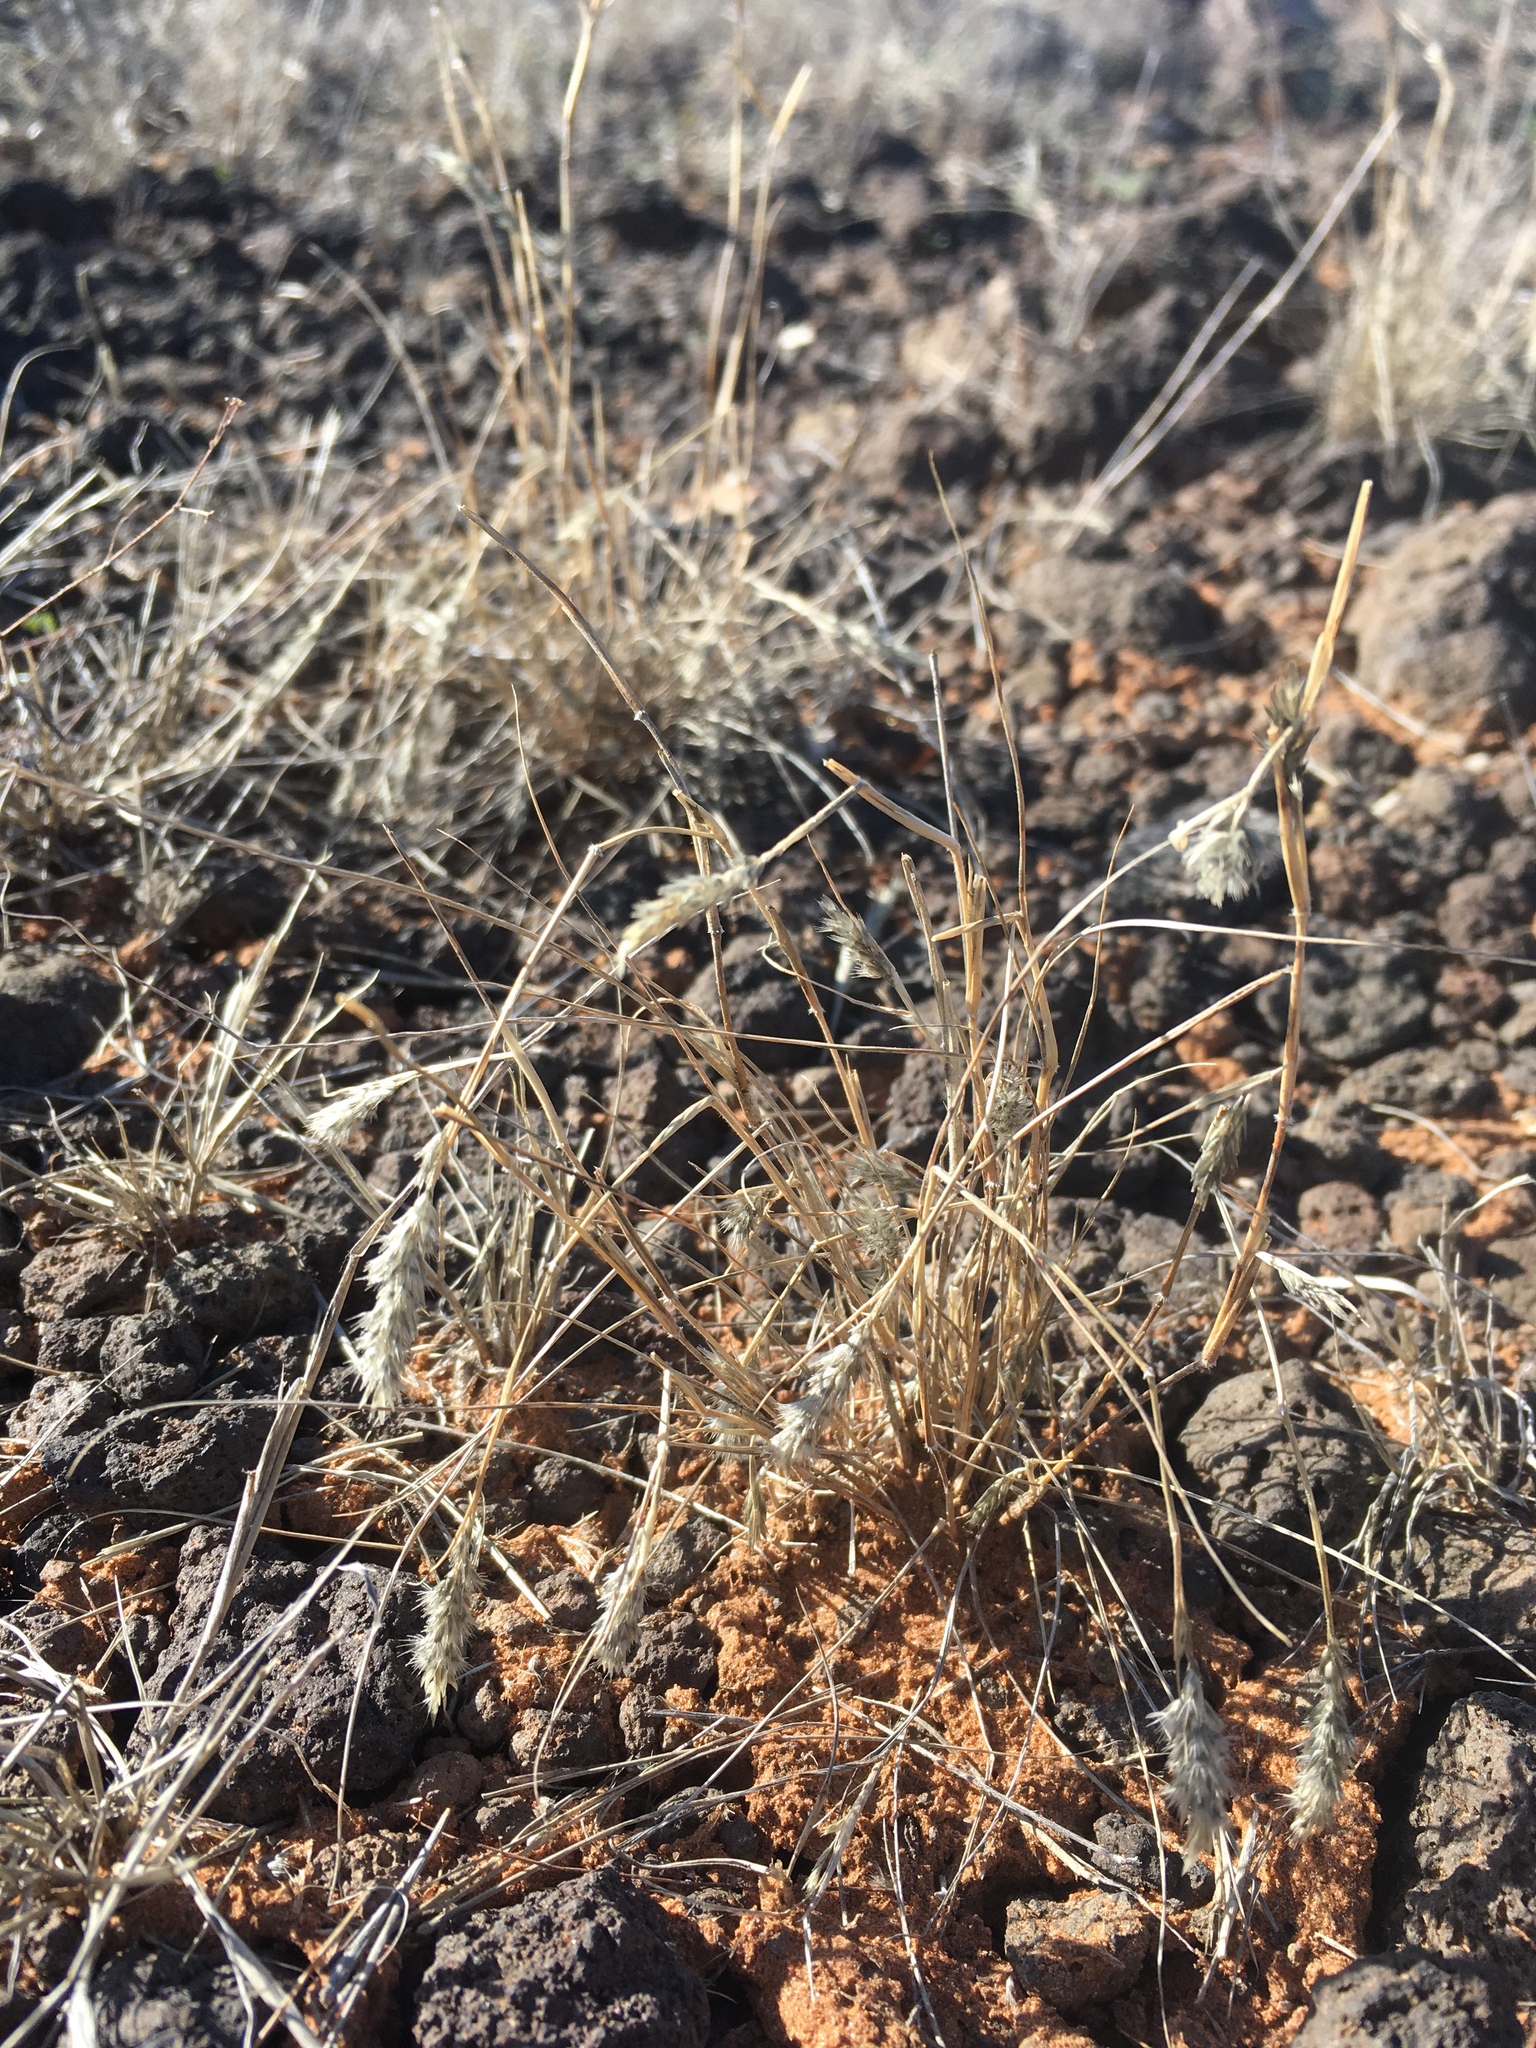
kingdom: Plantae
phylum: Tracheophyta
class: Liliopsida
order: Poales
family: Poaceae
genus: Enneapogon
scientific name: Enneapogon desvauxii
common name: Feather pappus grass
